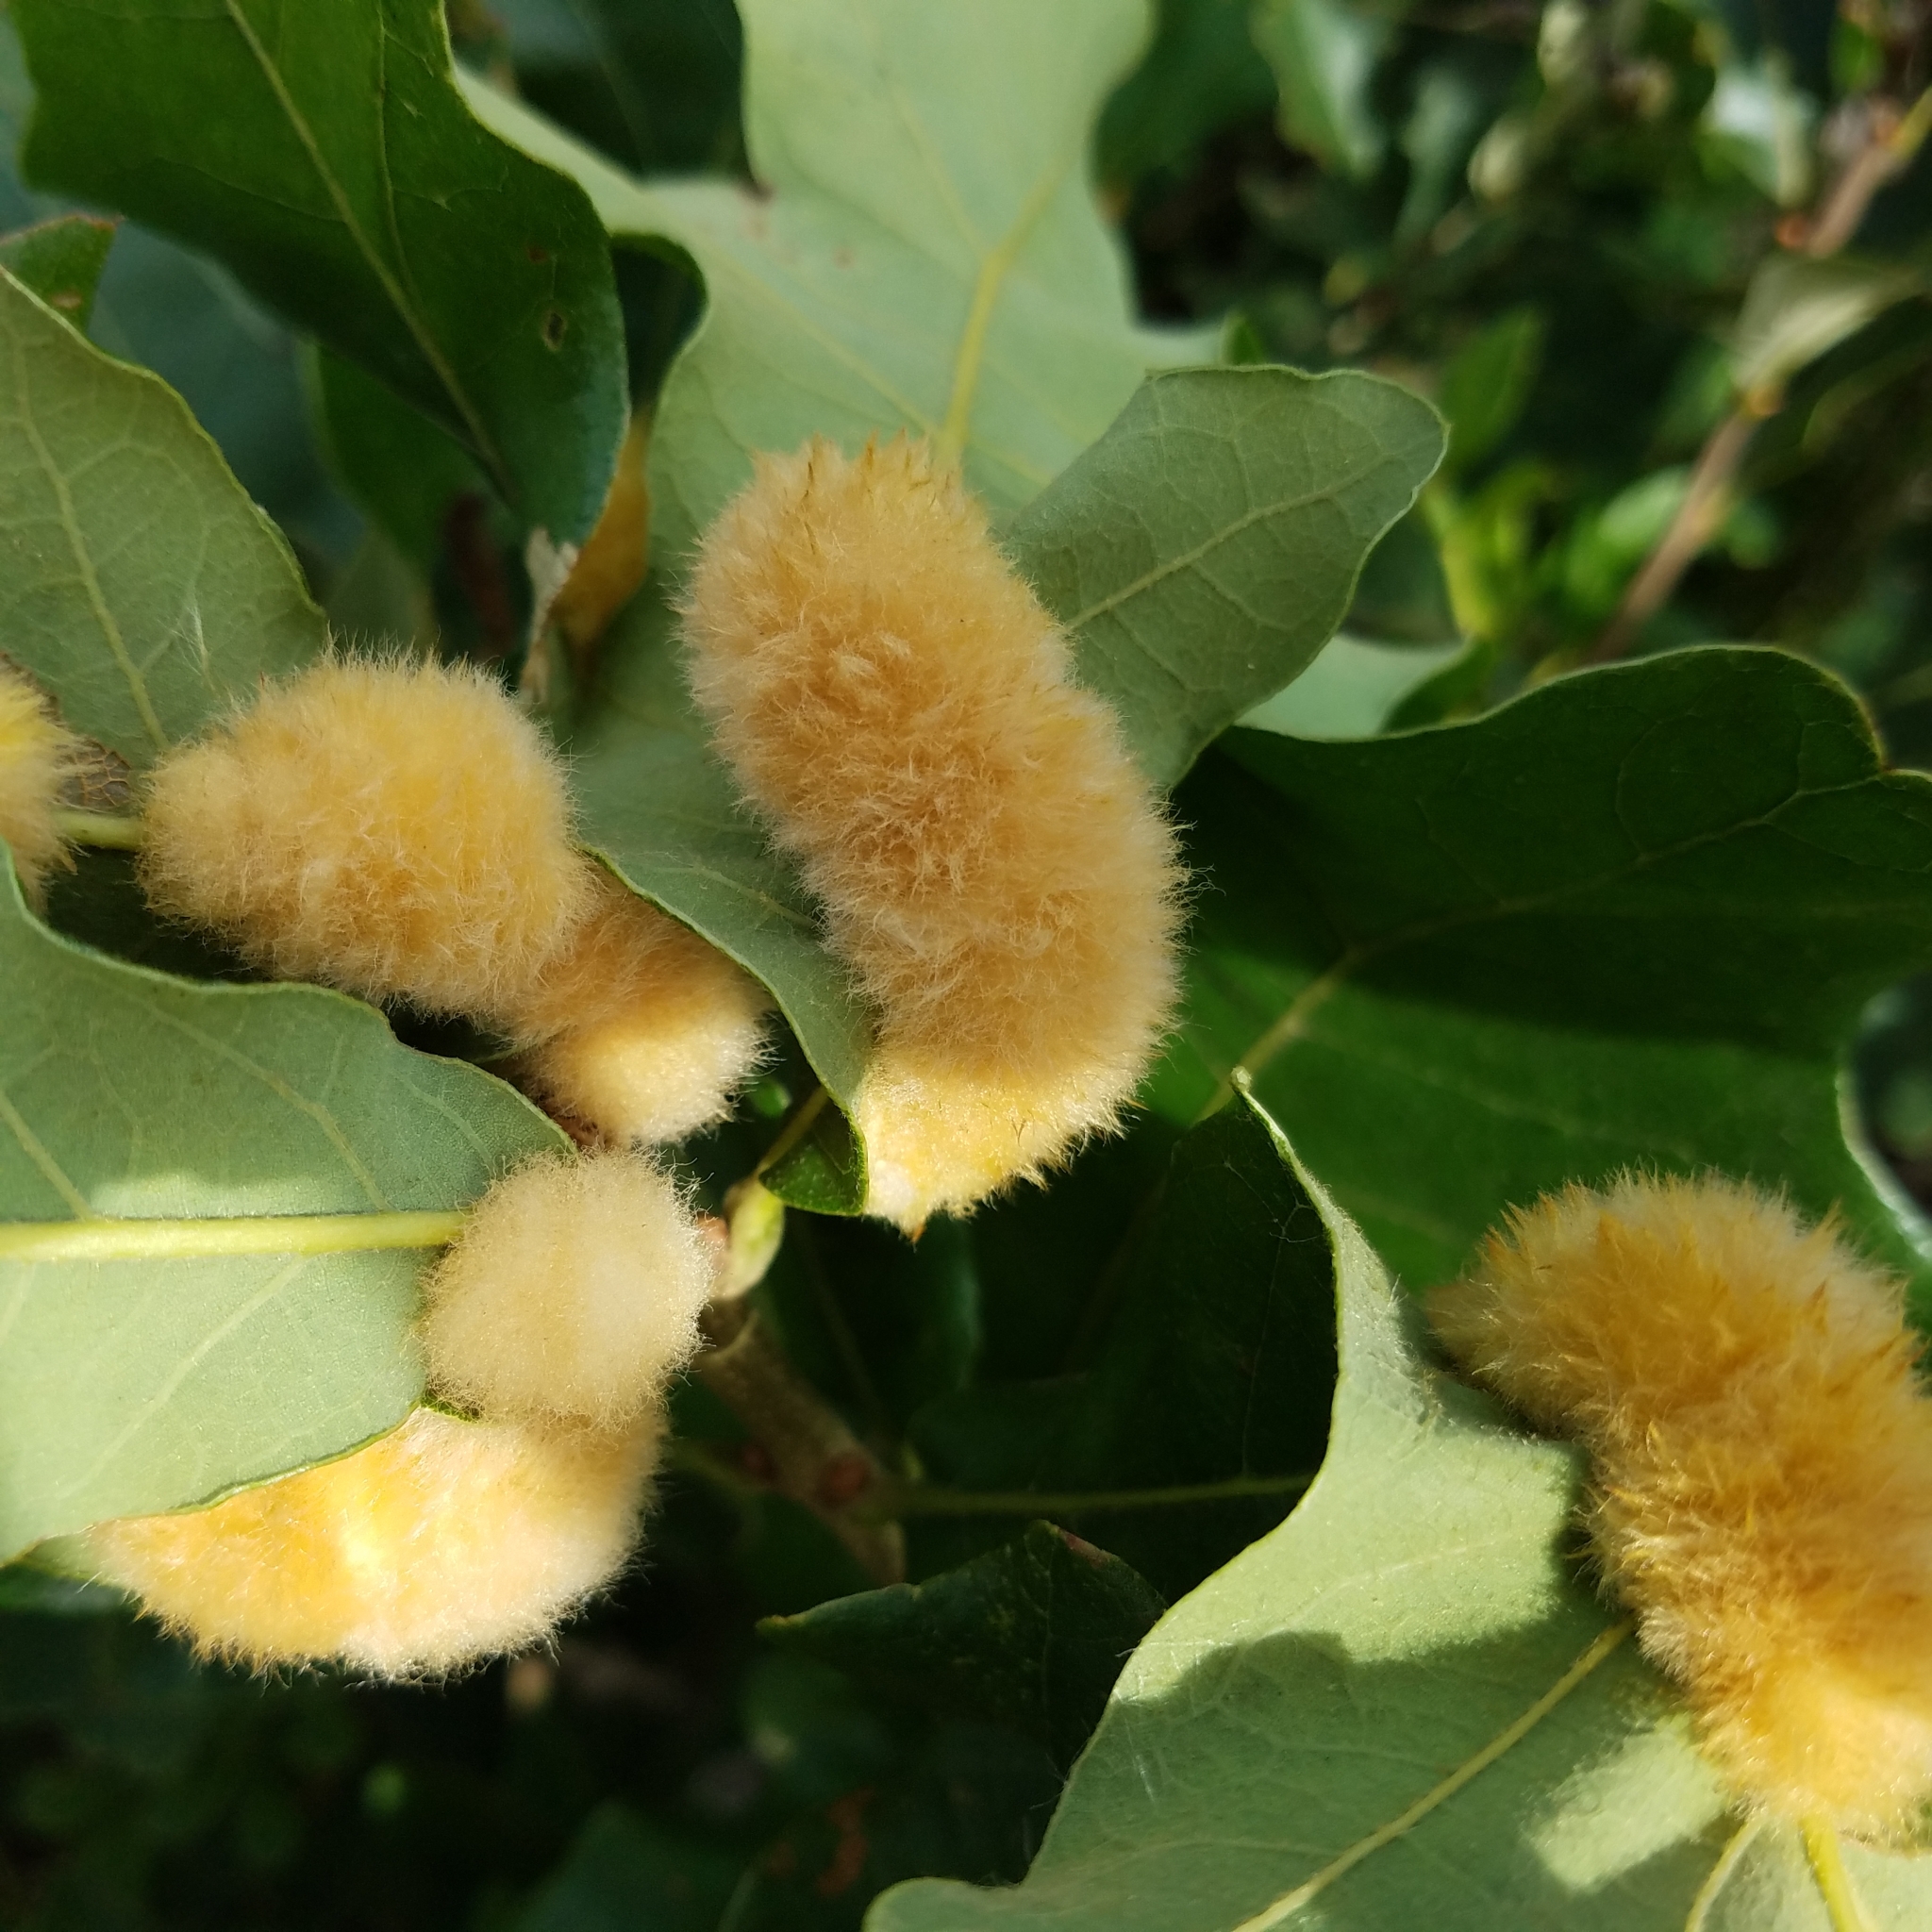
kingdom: Animalia
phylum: Arthropoda
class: Insecta
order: Hymenoptera
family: Cynipidae
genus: Andricus
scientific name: Andricus Druon pattoni
